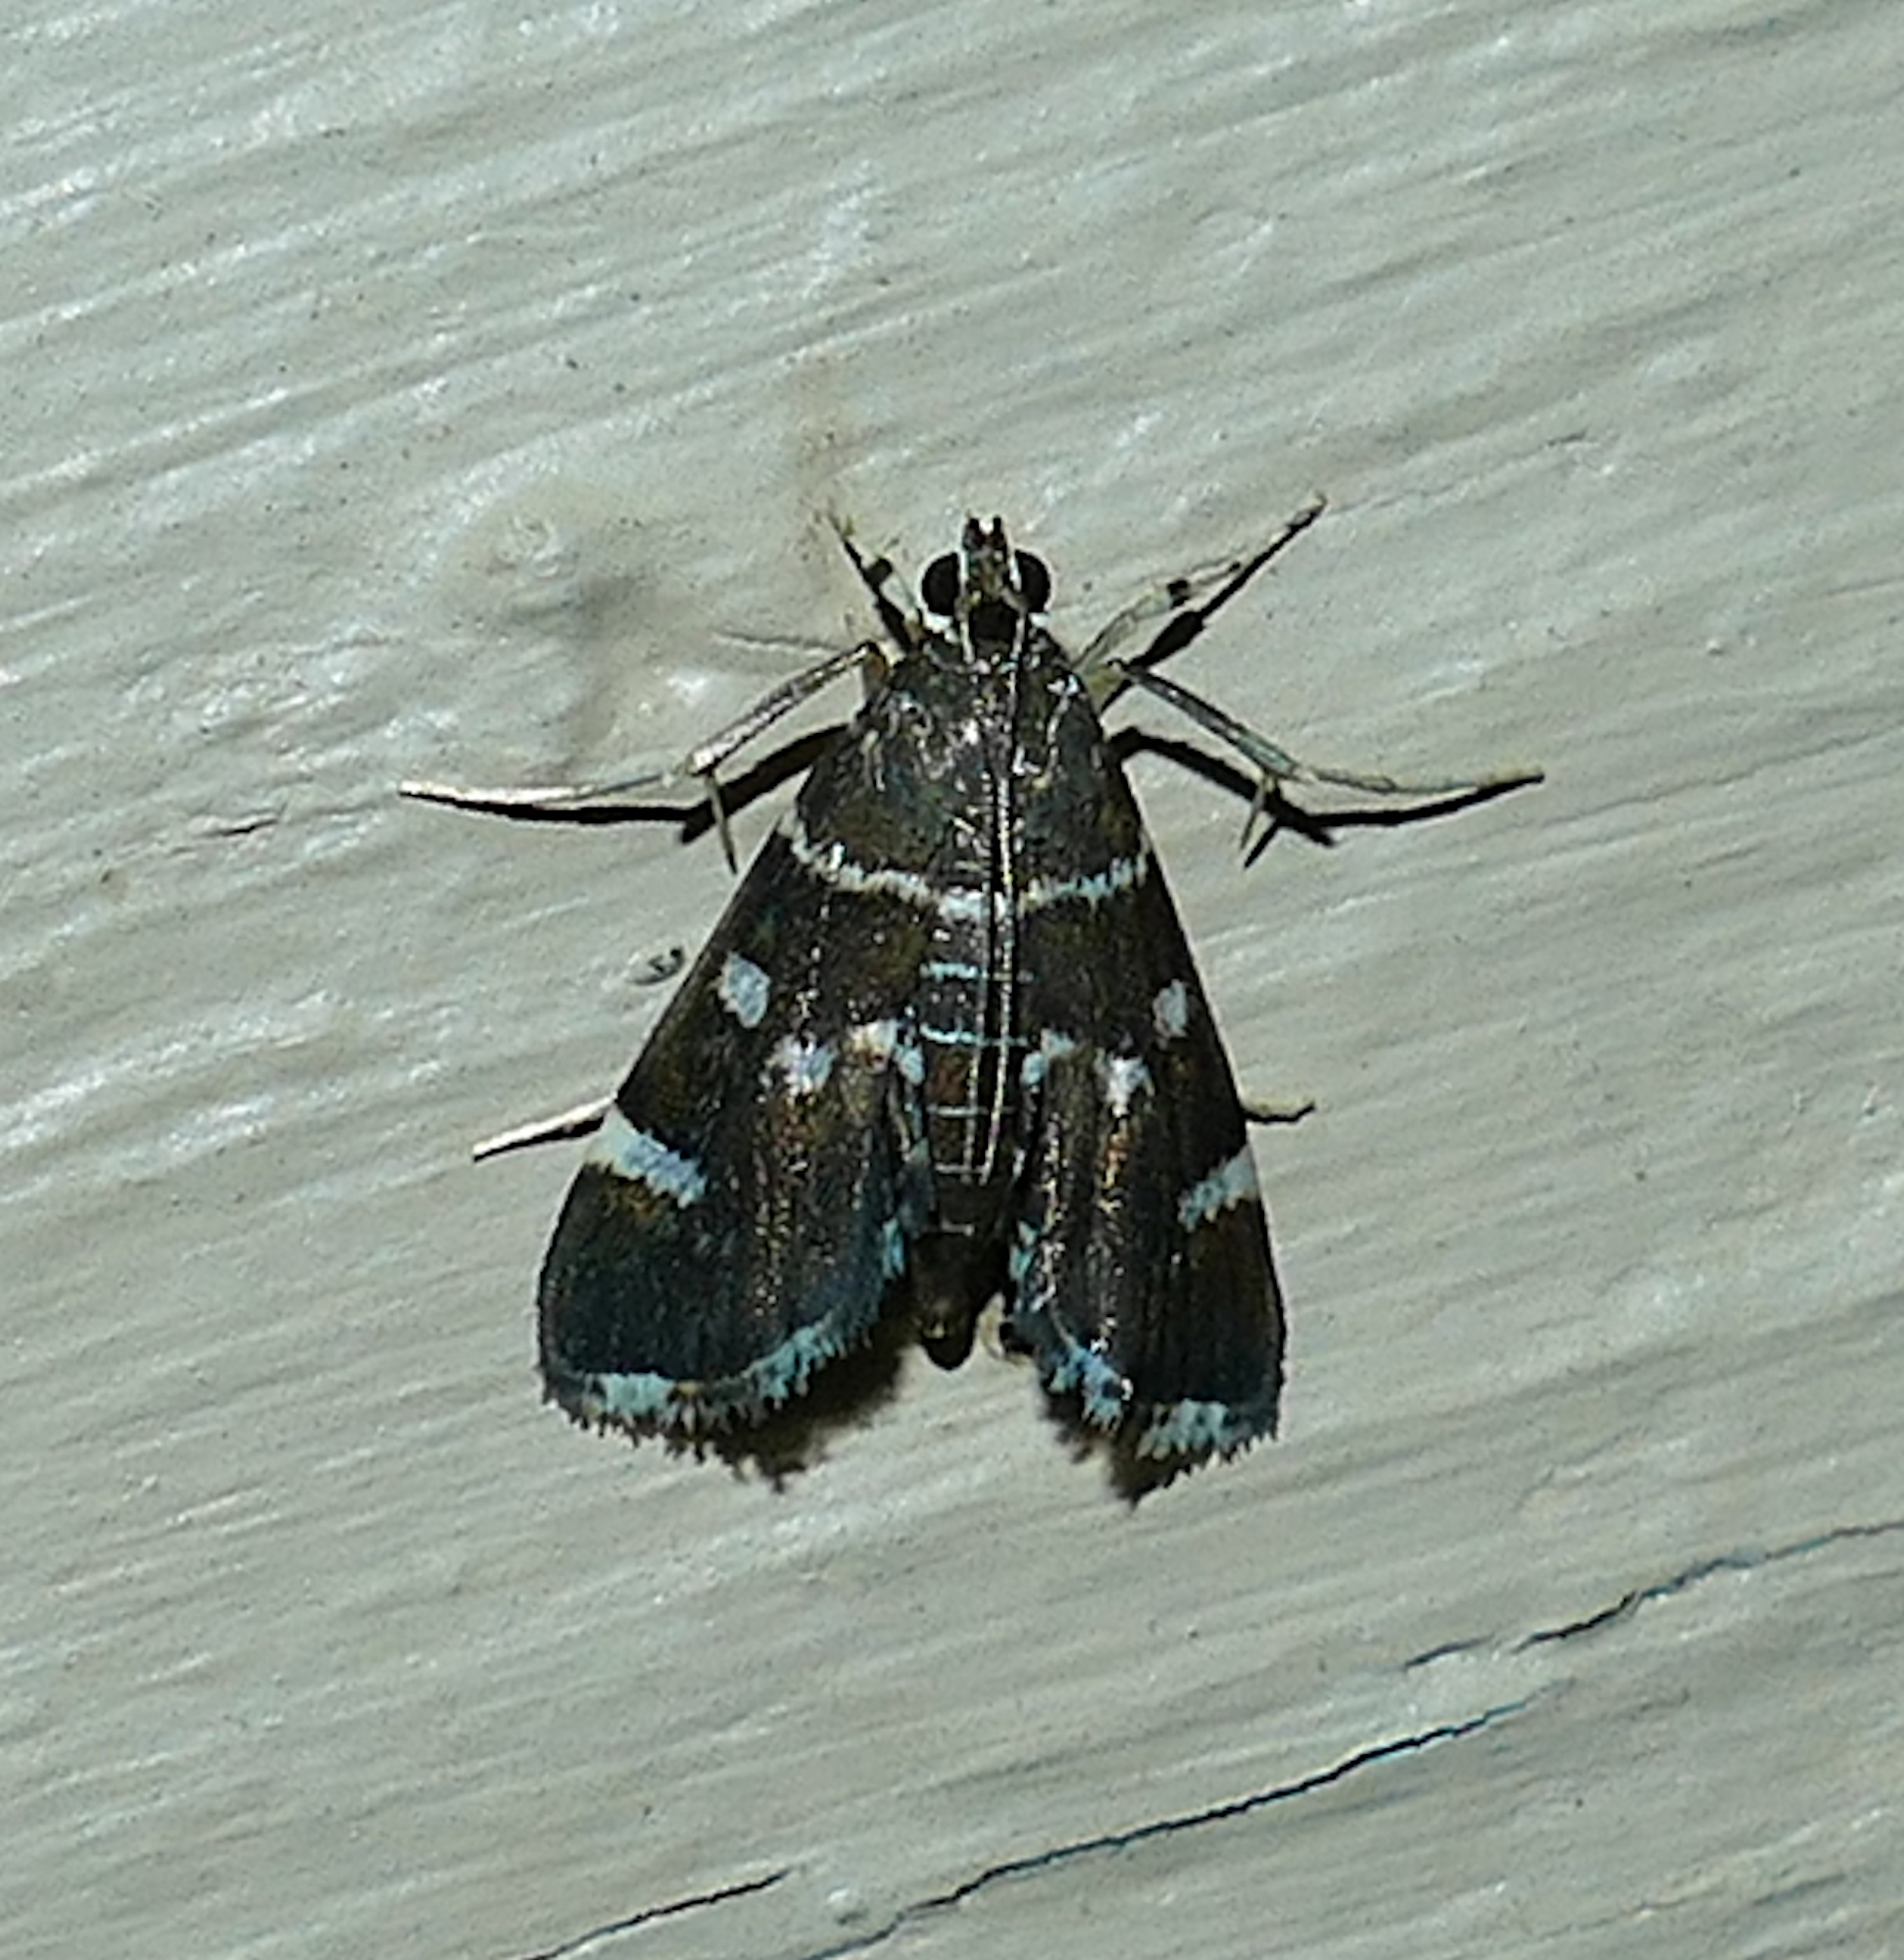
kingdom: Animalia
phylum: Arthropoda
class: Insecta
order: Lepidoptera
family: Crambidae
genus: Hymenia
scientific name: Hymenia perspectalis
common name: Spotted beet webworm
